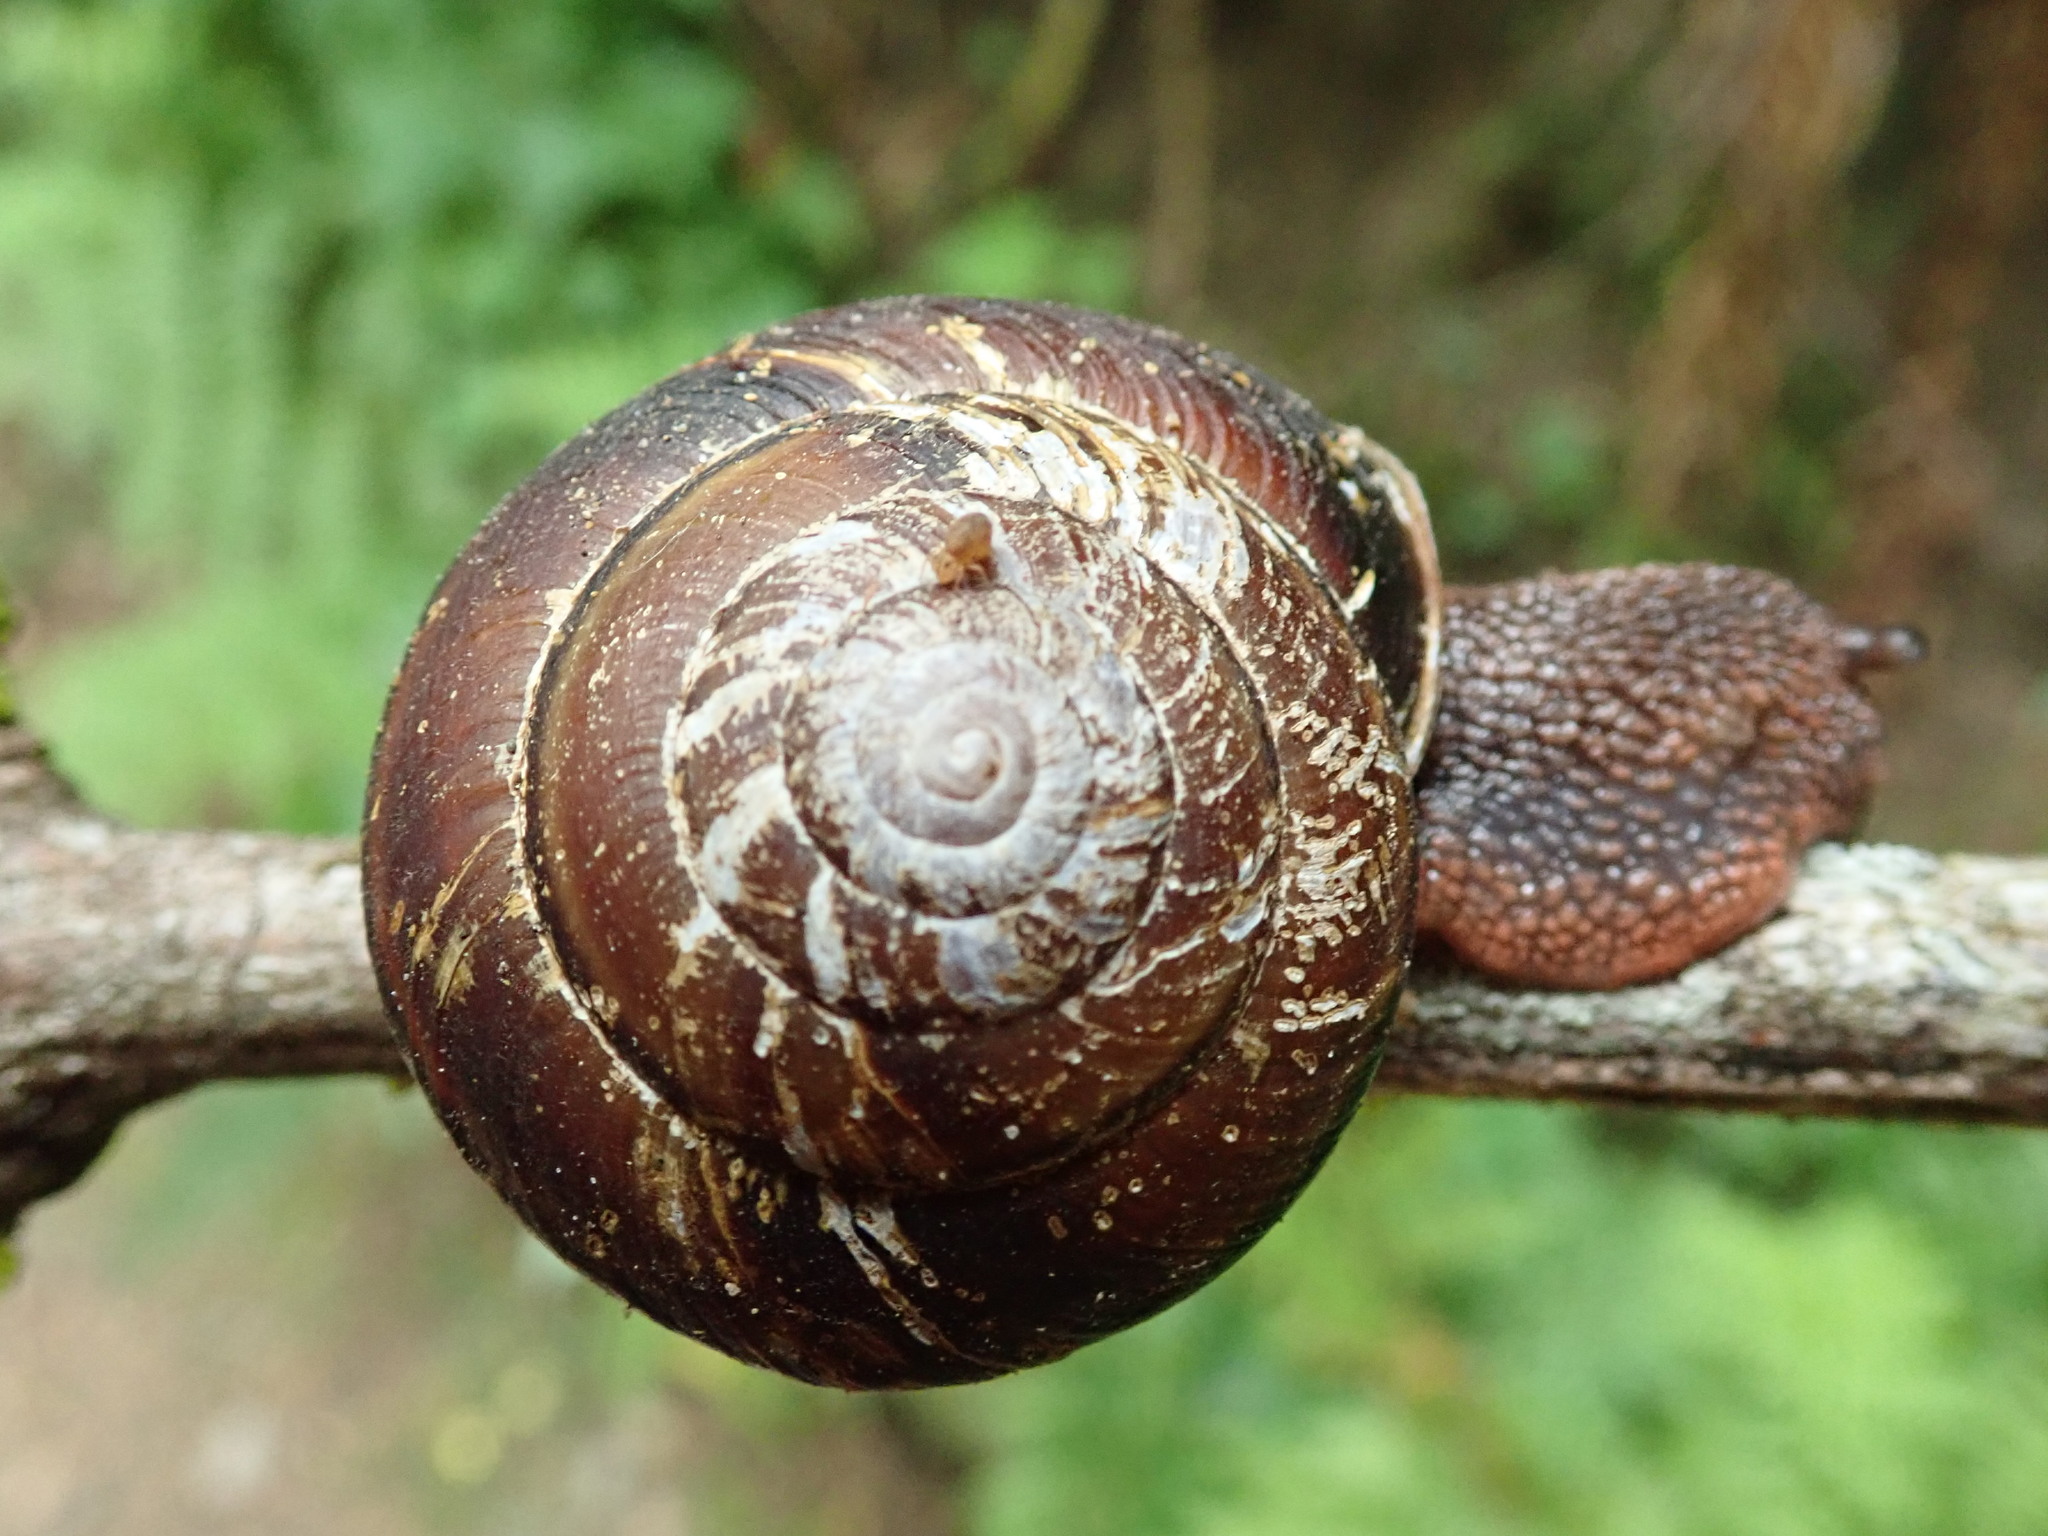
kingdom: Animalia
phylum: Mollusca
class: Gastropoda
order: Stylommatophora
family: Xanthonychidae
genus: Monadenia
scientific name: Monadenia fidelis
